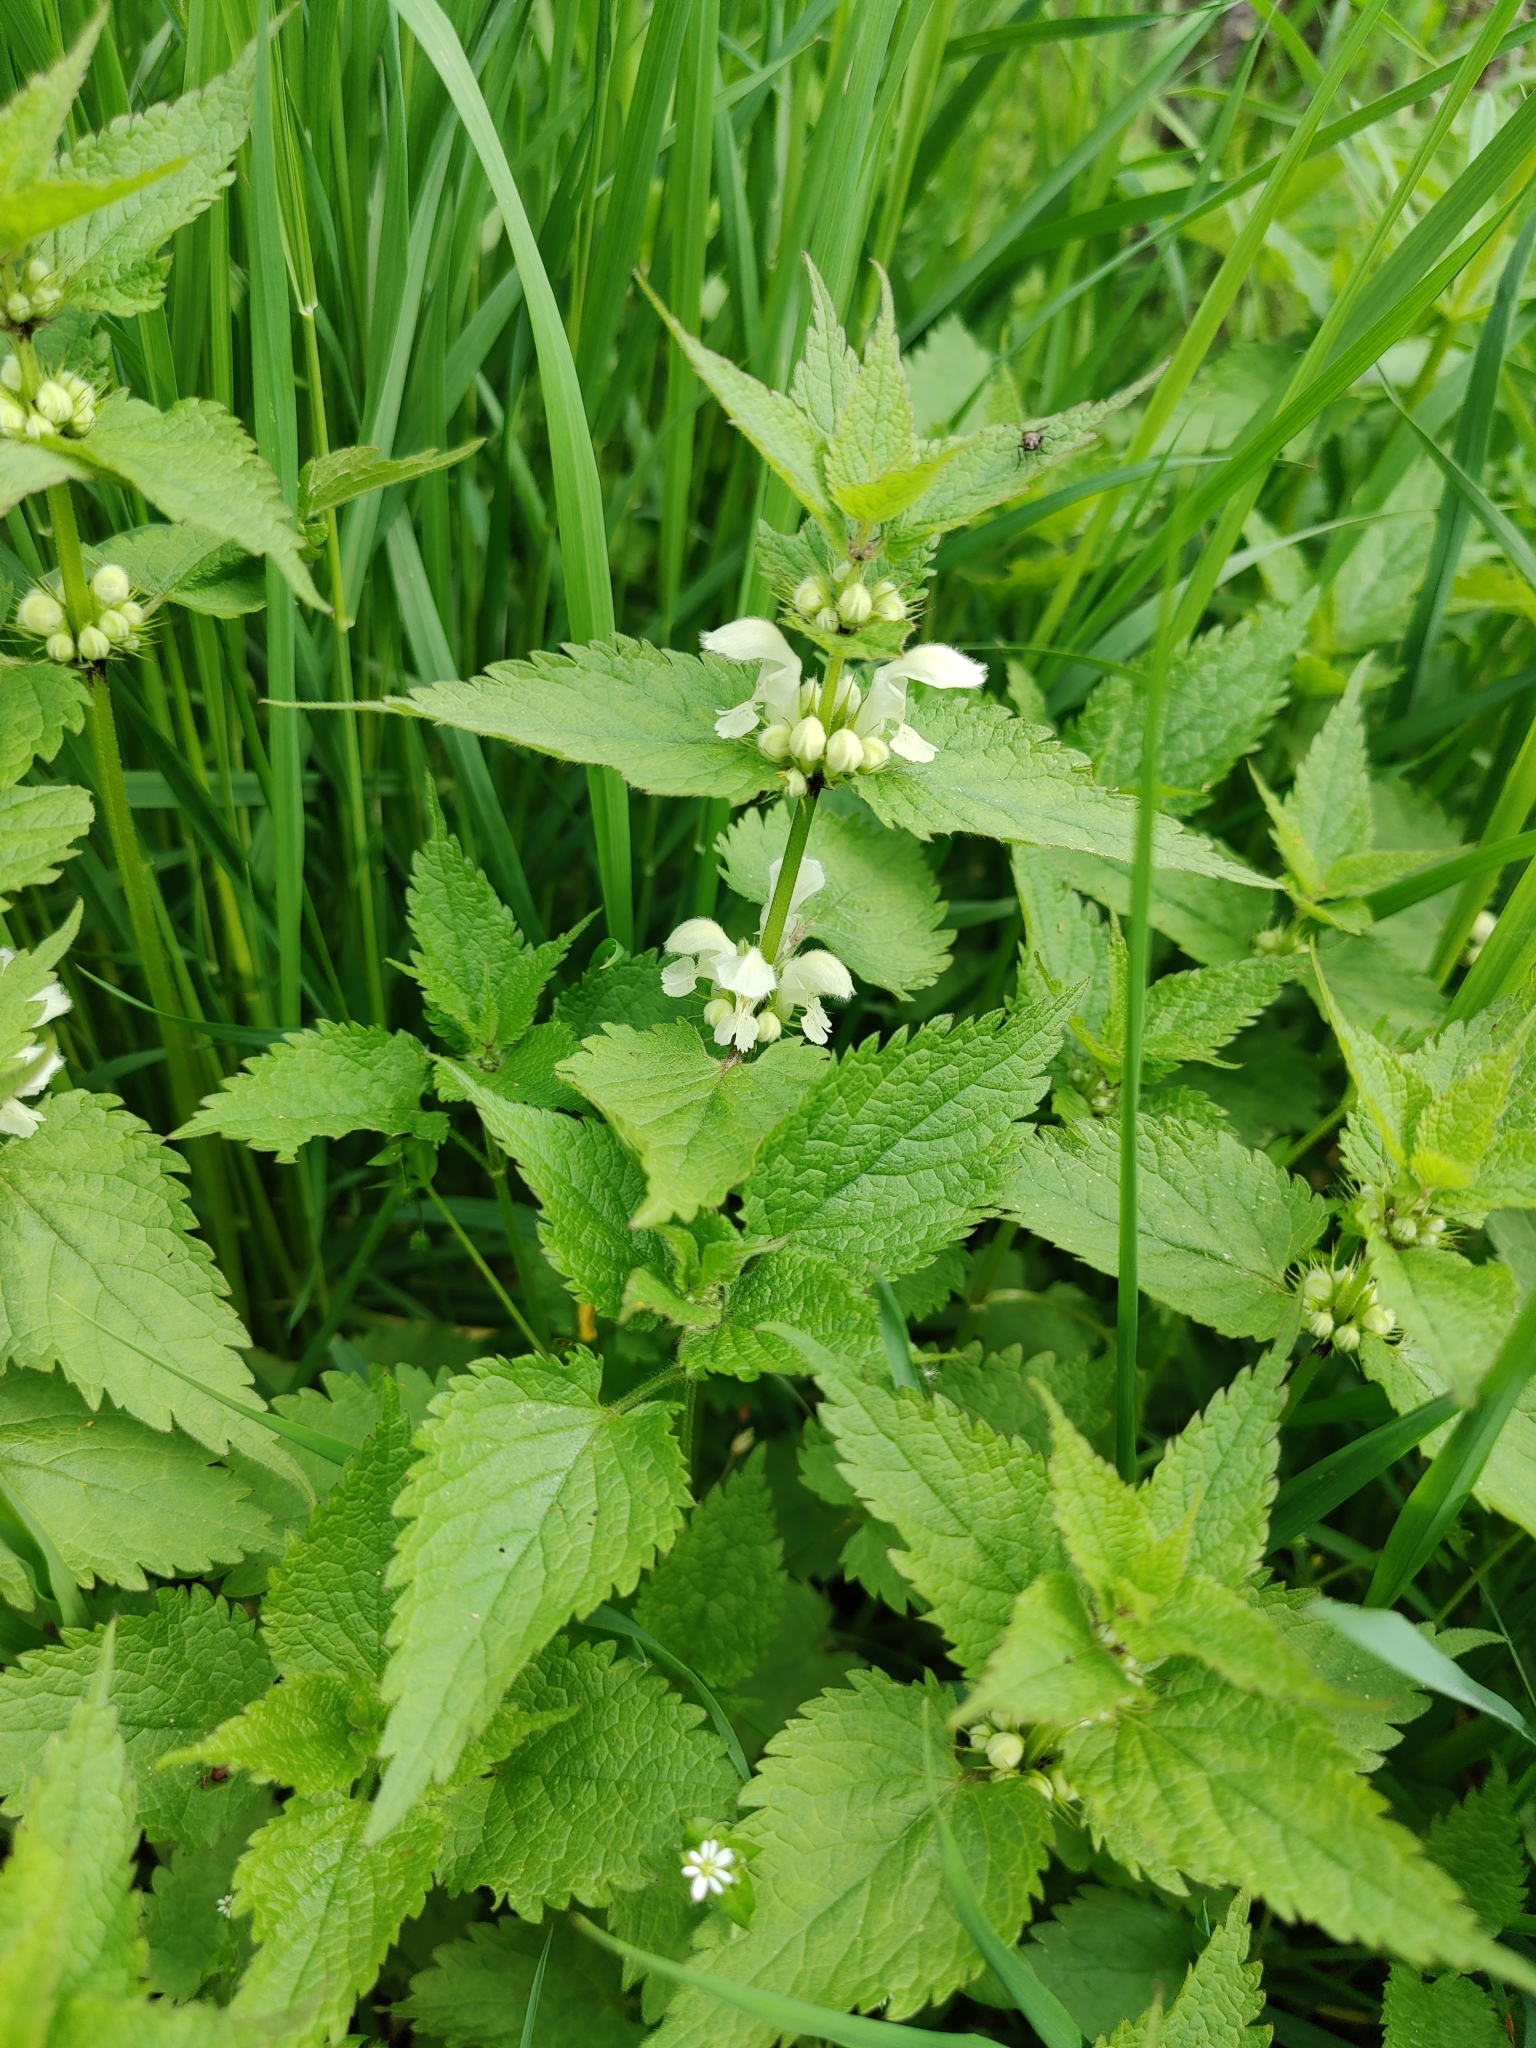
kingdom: Plantae
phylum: Tracheophyta
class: Magnoliopsida
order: Lamiales
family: Lamiaceae
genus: Lamium
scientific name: Lamium album
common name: White dead-nettle
